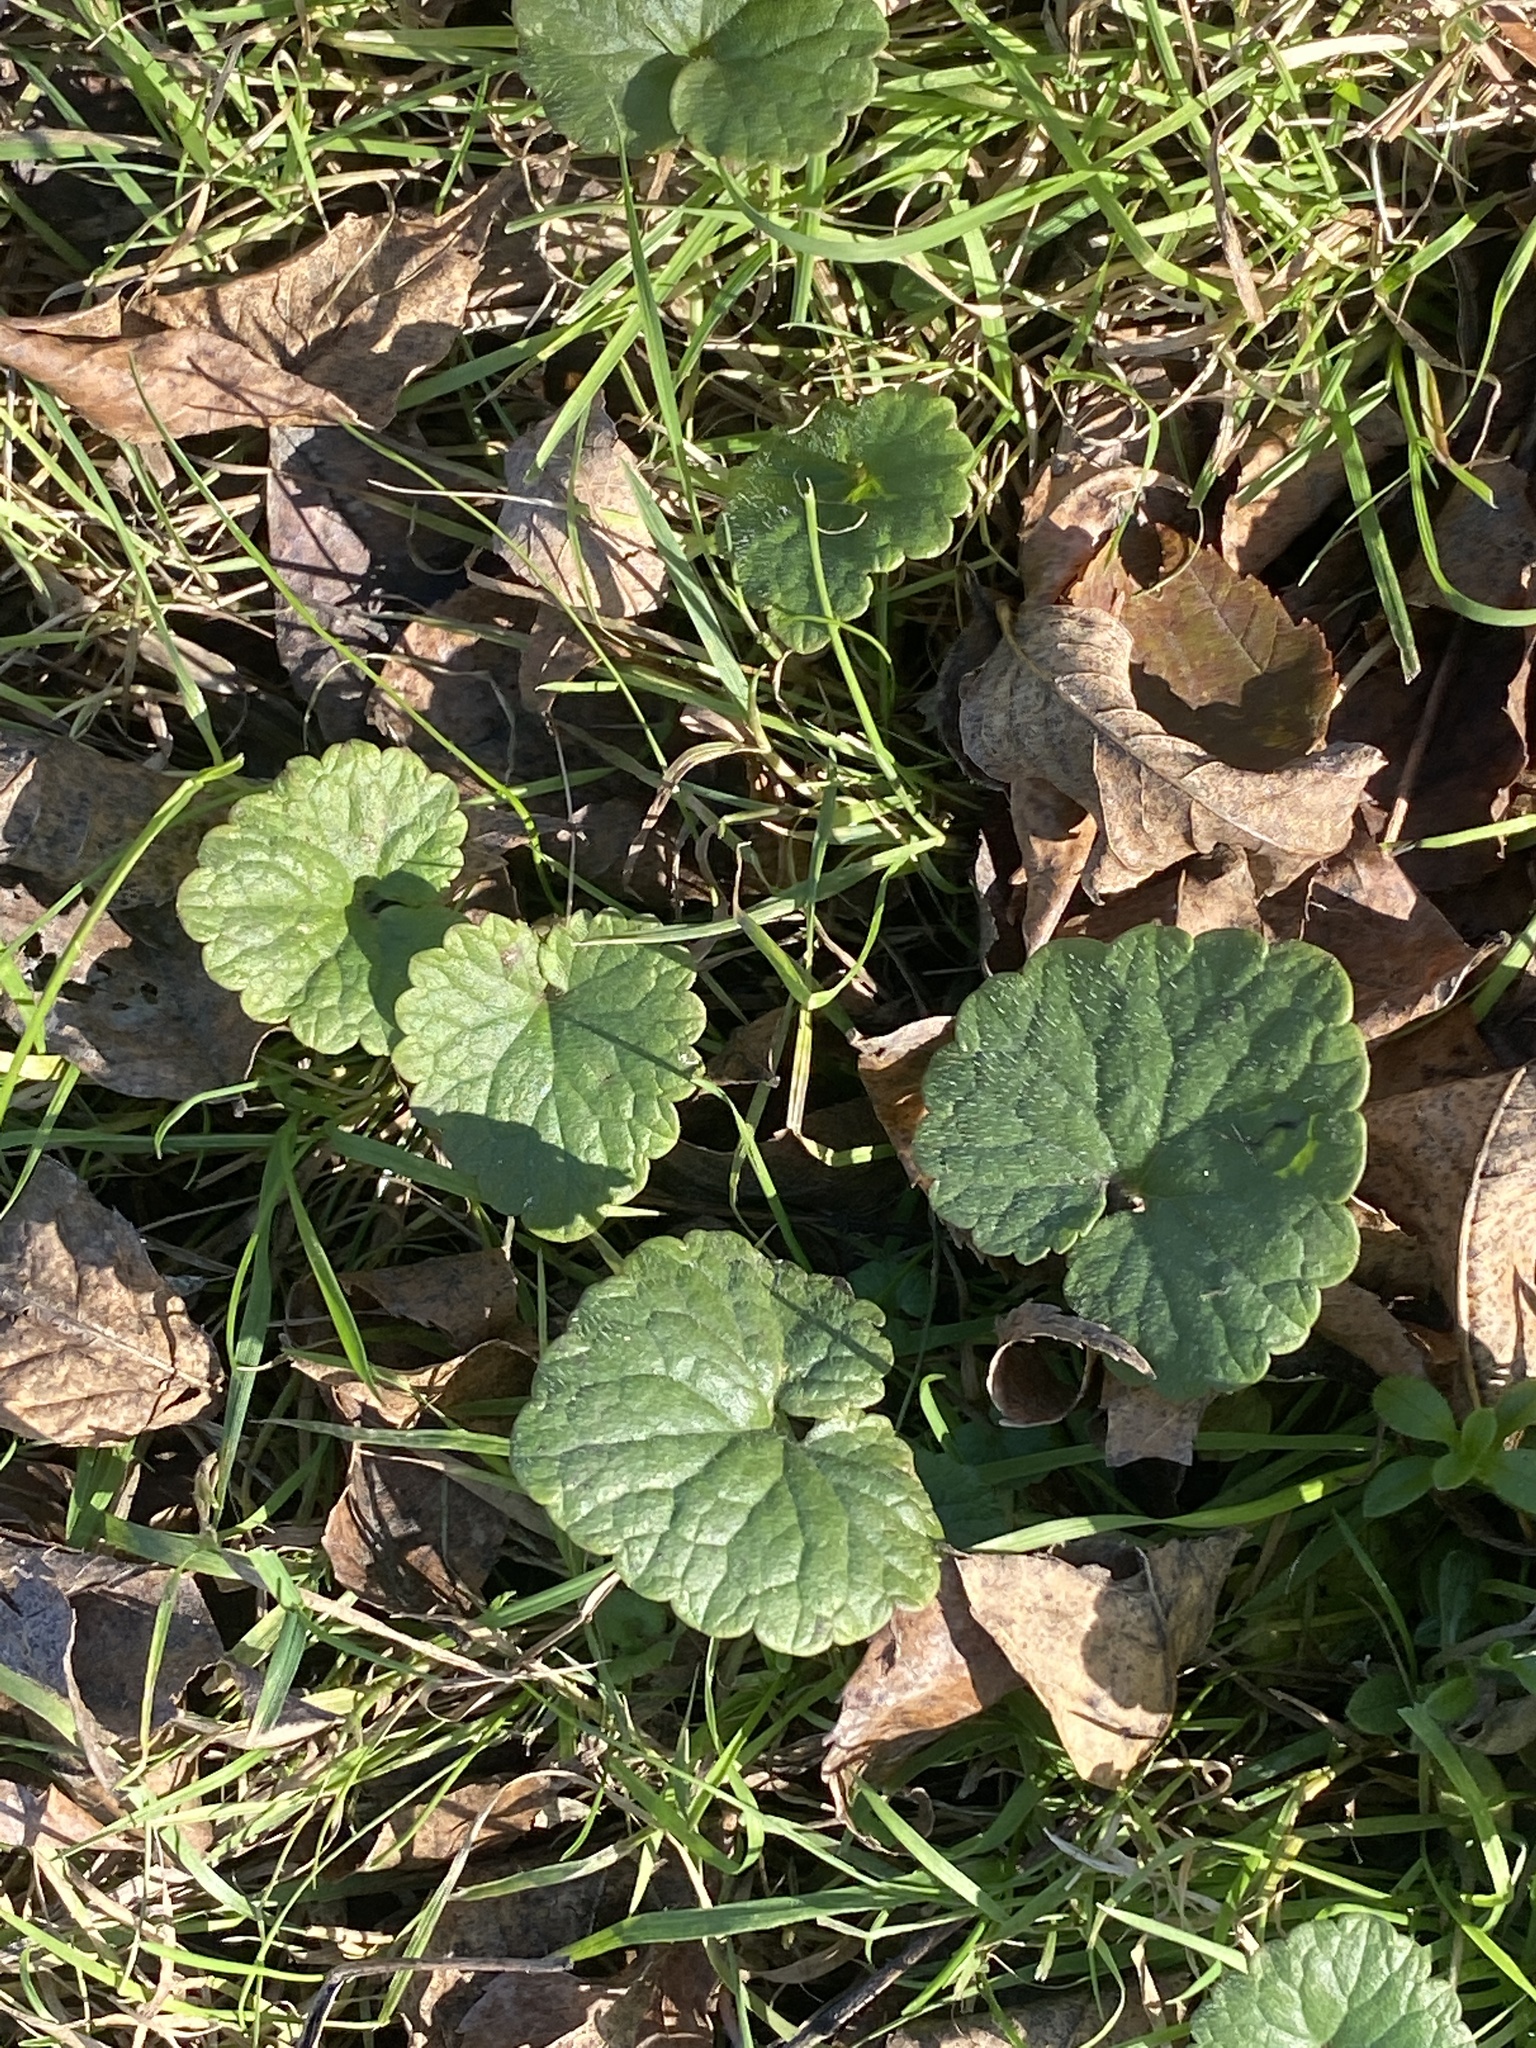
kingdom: Plantae
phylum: Tracheophyta
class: Magnoliopsida
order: Lamiales
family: Lamiaceae
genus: Glechoma
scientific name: Glechoma hederacea
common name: Ground ivy
